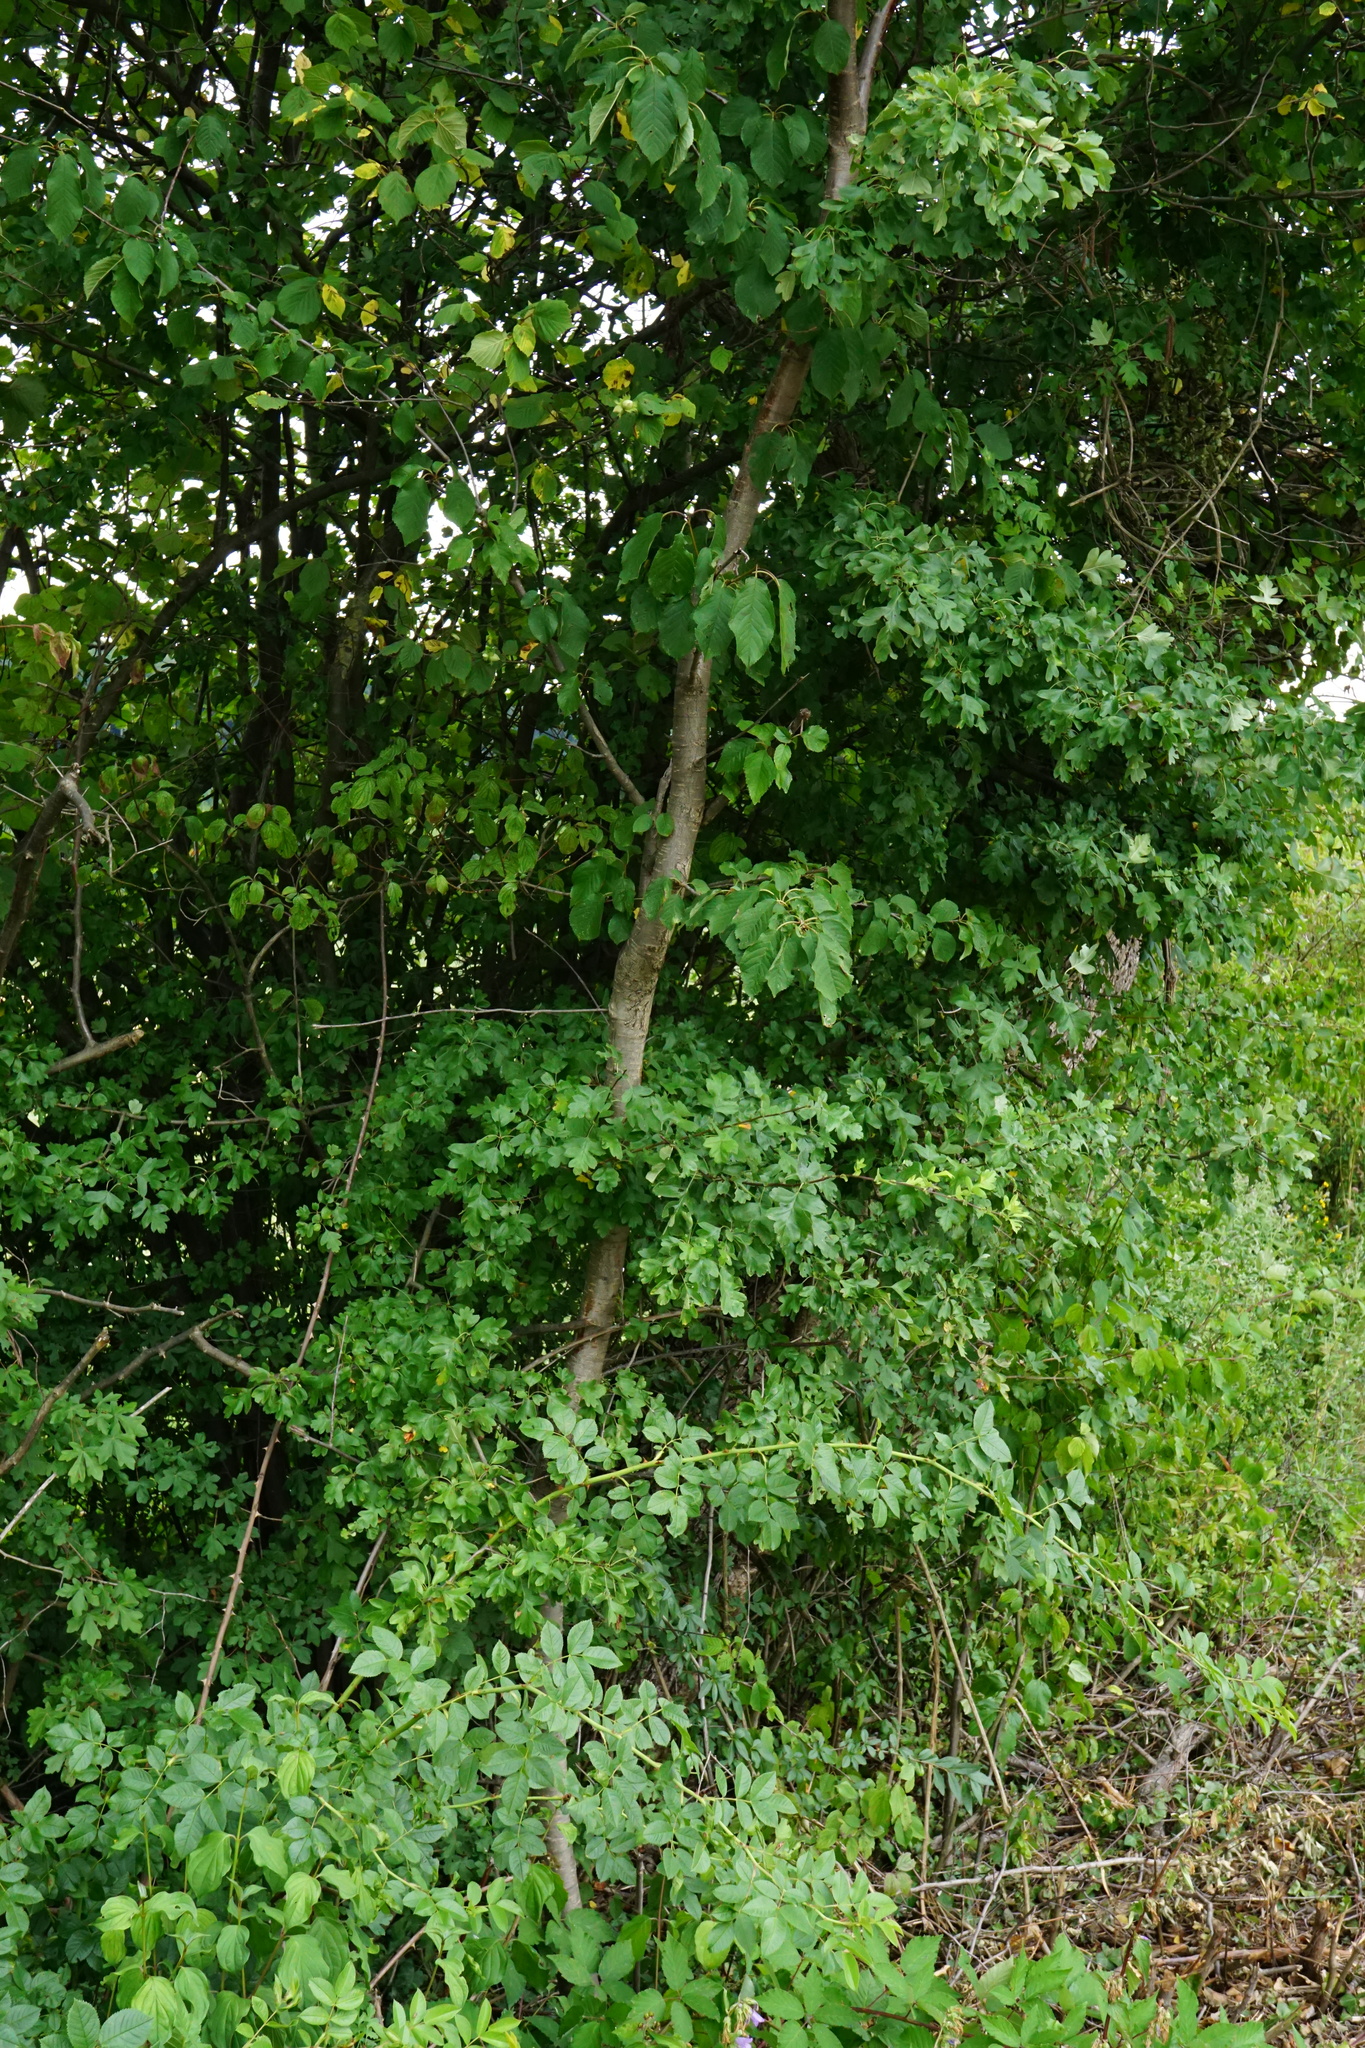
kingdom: Plantae
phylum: Tracheophyta
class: Magnoliopsida
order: Rosales
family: Rosaceae
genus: Crataegus
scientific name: Crataegus monogyna
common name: Hawthorn
